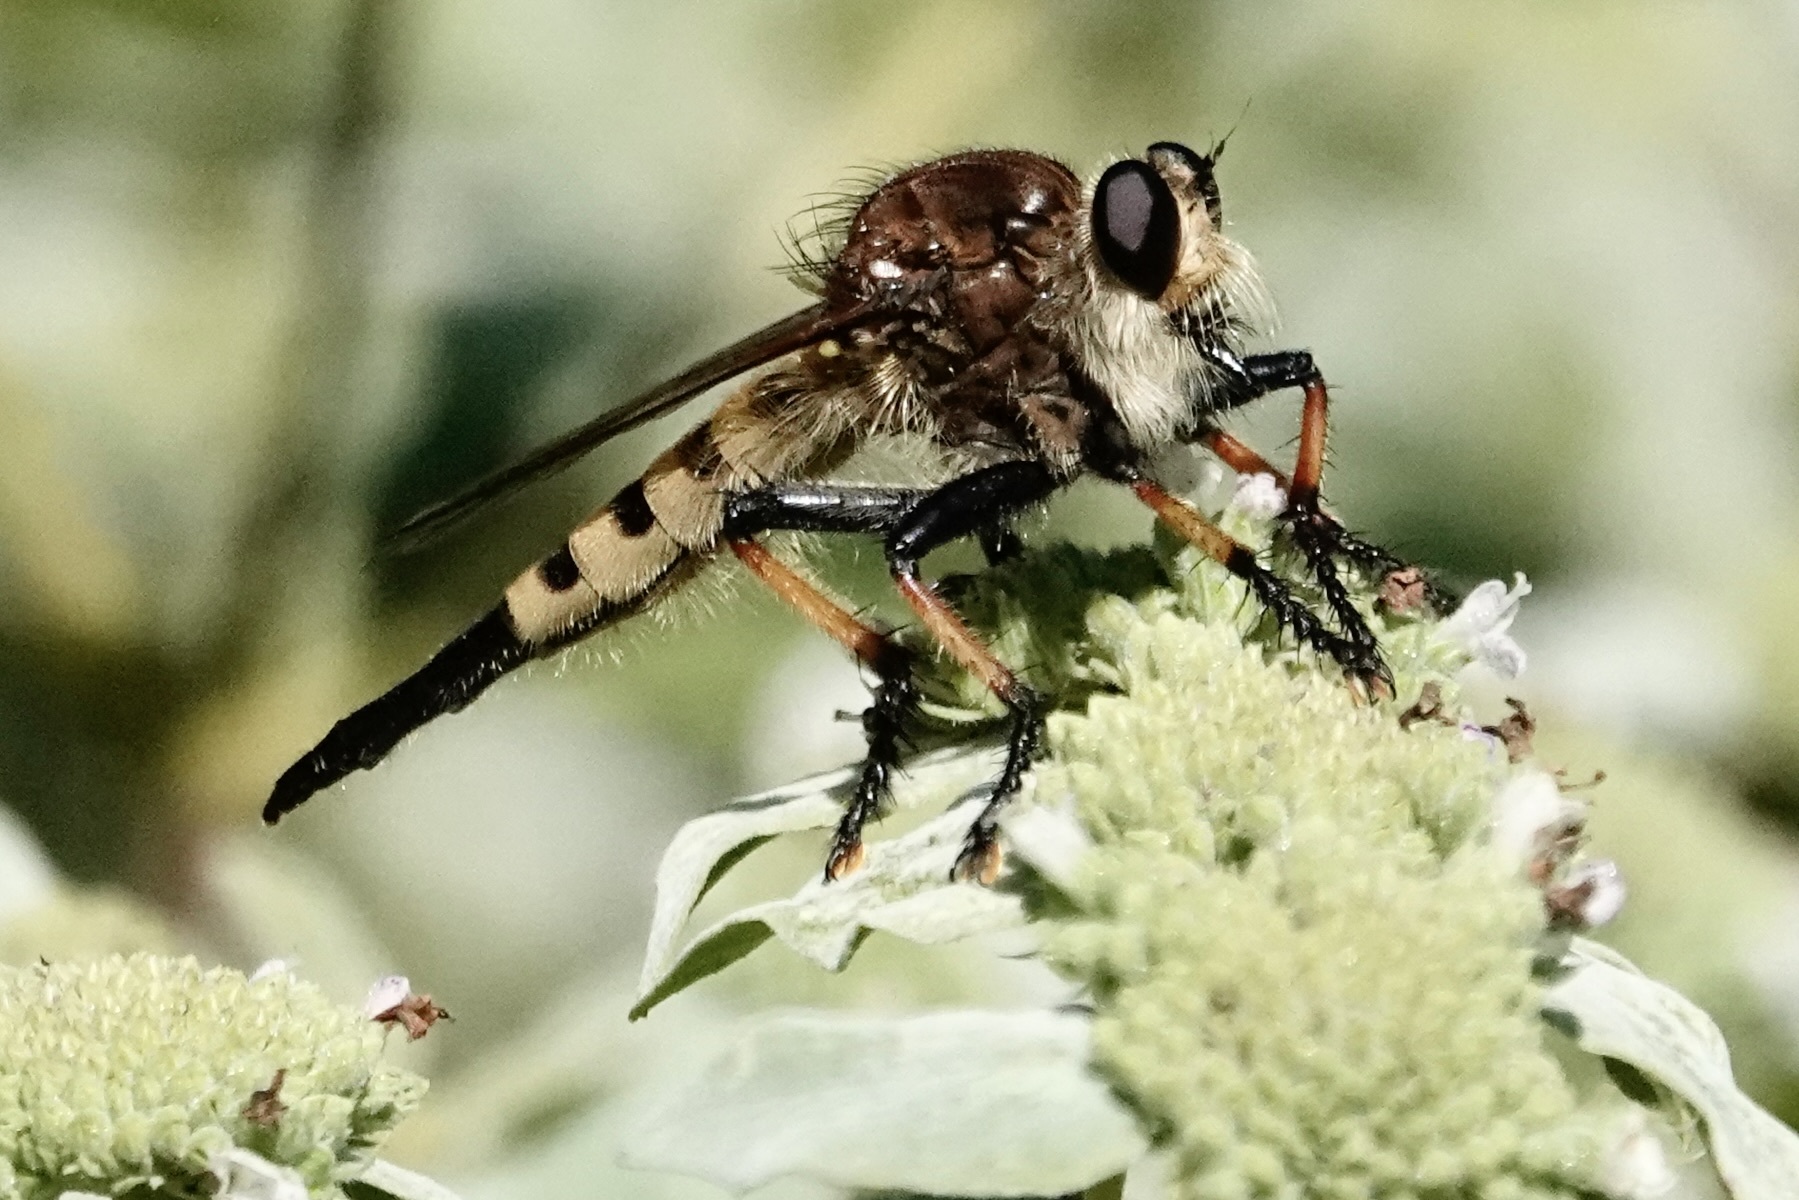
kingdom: Animalia
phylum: Arthropoda
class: Insecta
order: Diptera
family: Asilidae
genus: Promachus
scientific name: Promachus rufipes
